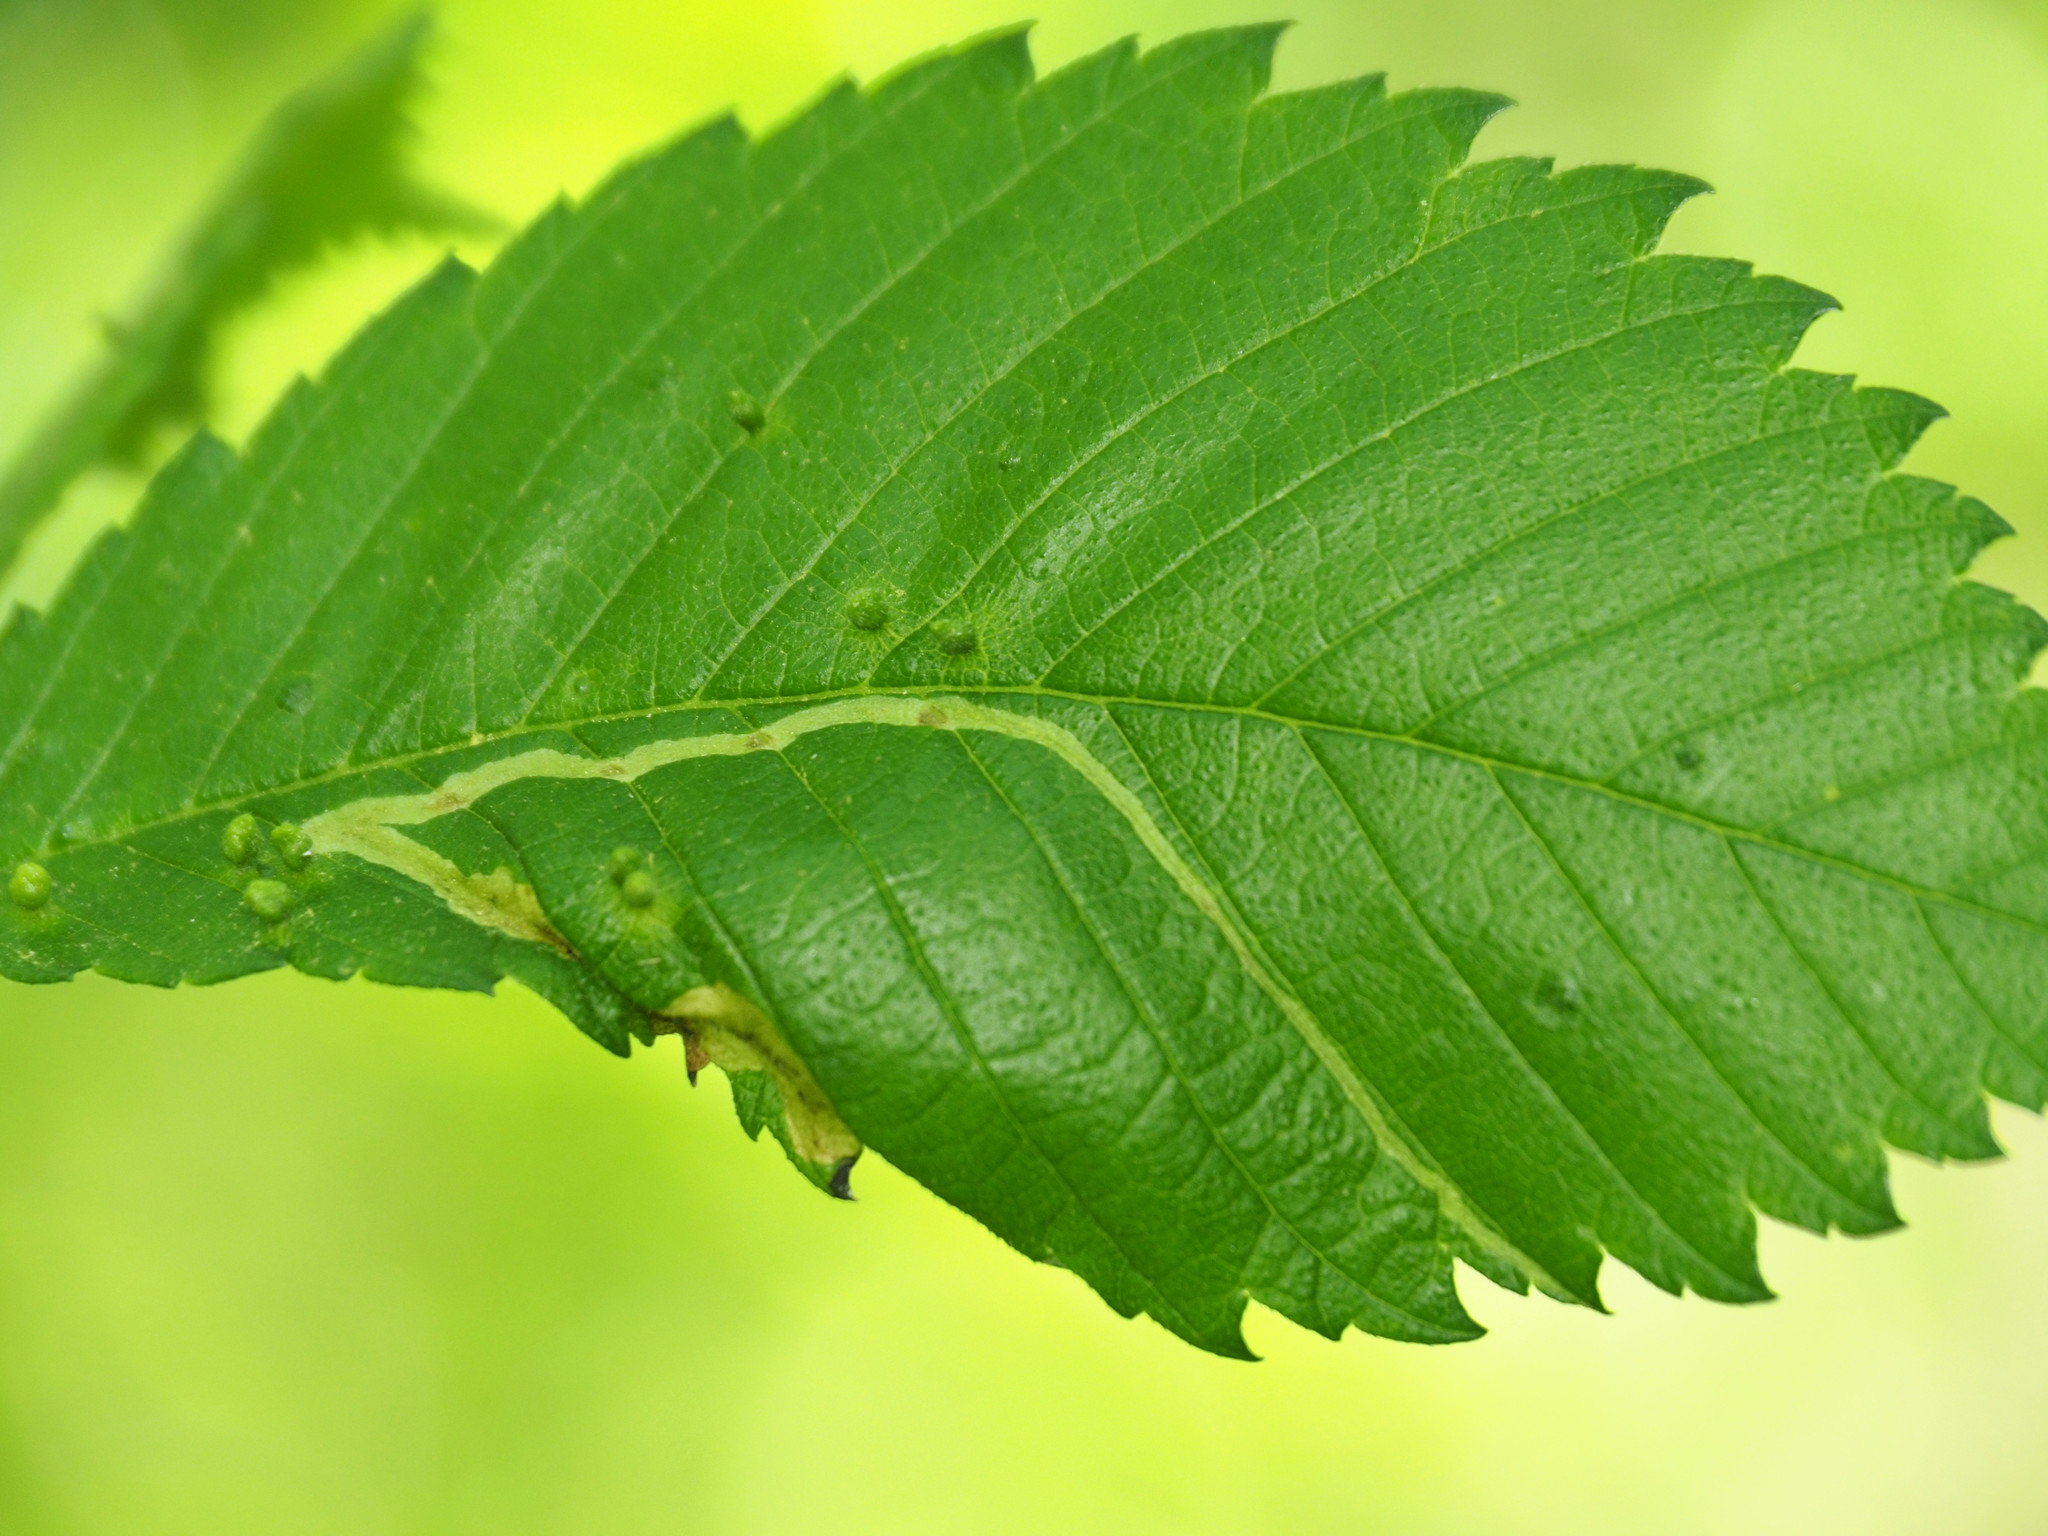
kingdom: Animalia
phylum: Arthropoda
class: Insecta
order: Diptera
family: Agromyzidae
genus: Agromyza
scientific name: Agromyza aristata
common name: Elm agromyzid leafminer
